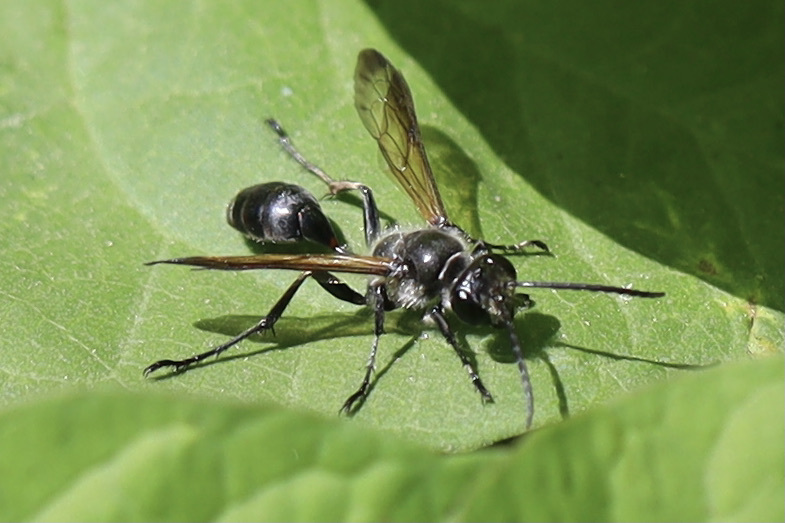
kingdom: Animalia
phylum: Arthropoda
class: Insecta
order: Hymenoptera
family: Sphecidae
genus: Isodontia
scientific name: Isodontia mexicana
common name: Mud dauber
